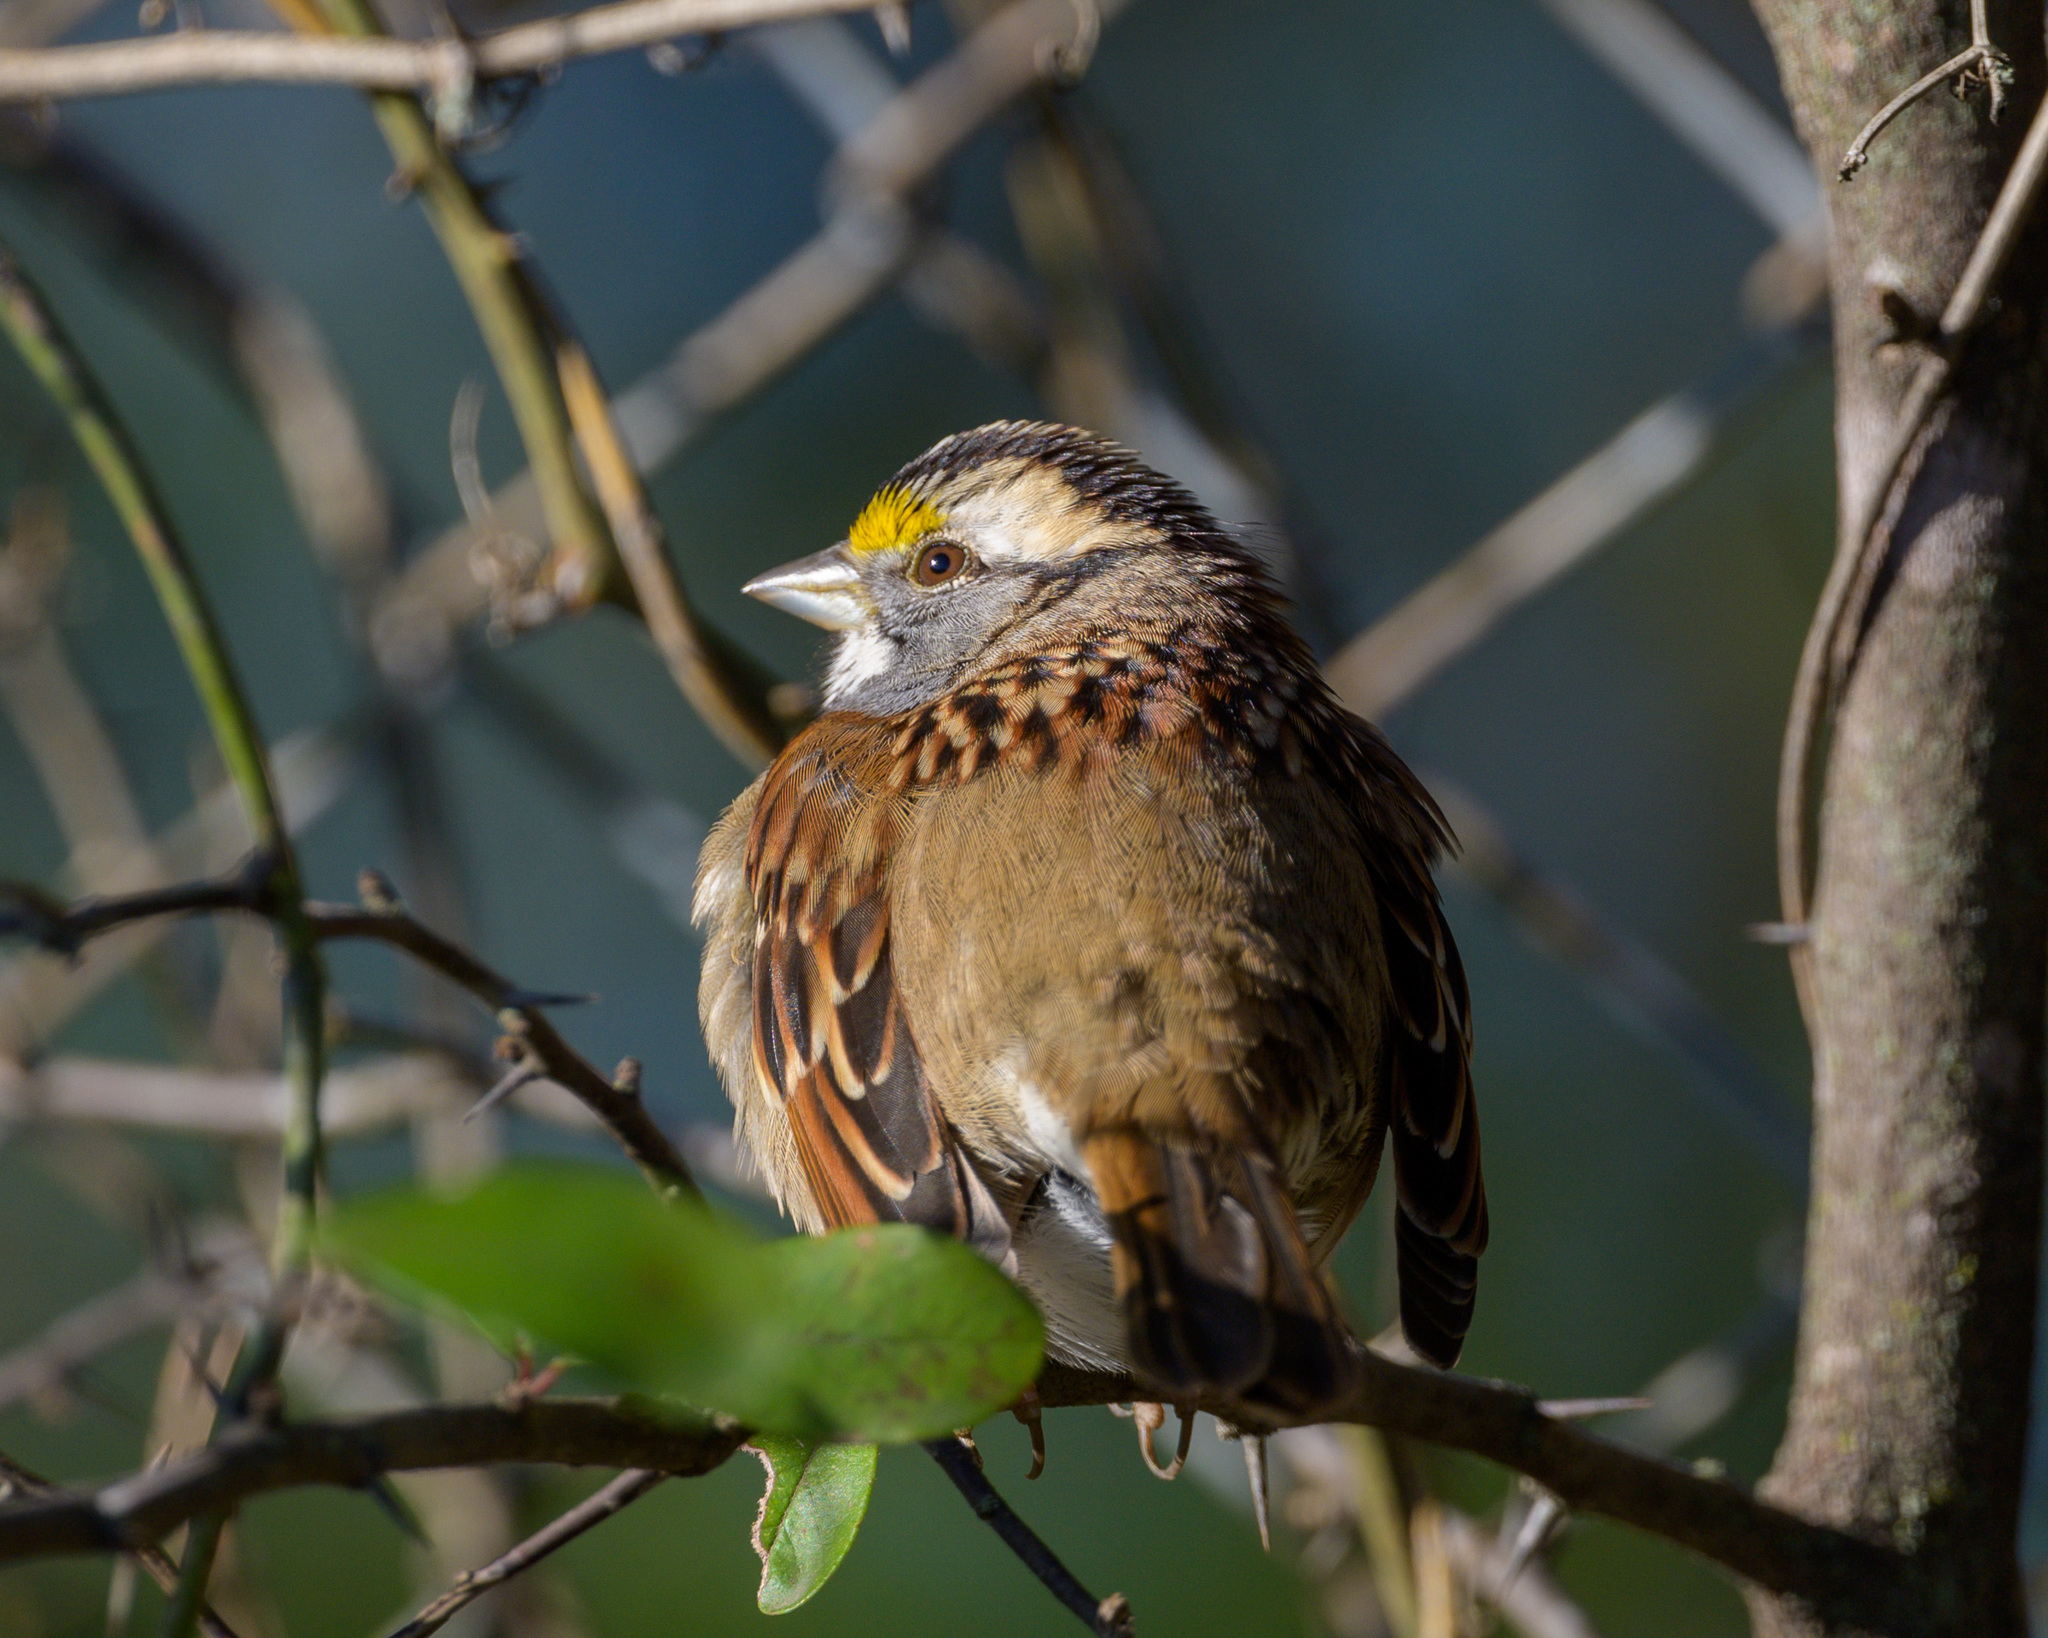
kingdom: Animalia
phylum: Chordata
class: Aves
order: Passeriformes
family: Passerellidae
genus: Zonotrichia
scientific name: Zonotrichia albicollis
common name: White-throated sparrow
